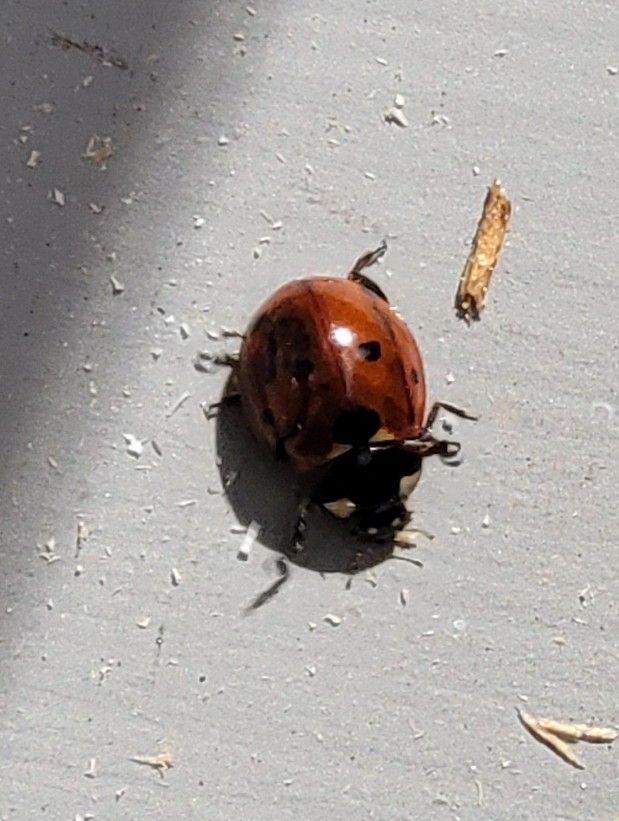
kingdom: Animalia
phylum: Arthropoda
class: Insecta
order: Coleoptera
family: Coccinellidae
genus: Coccinella
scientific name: Coccinella septempunctata
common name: Sevenspotted lady beetle
